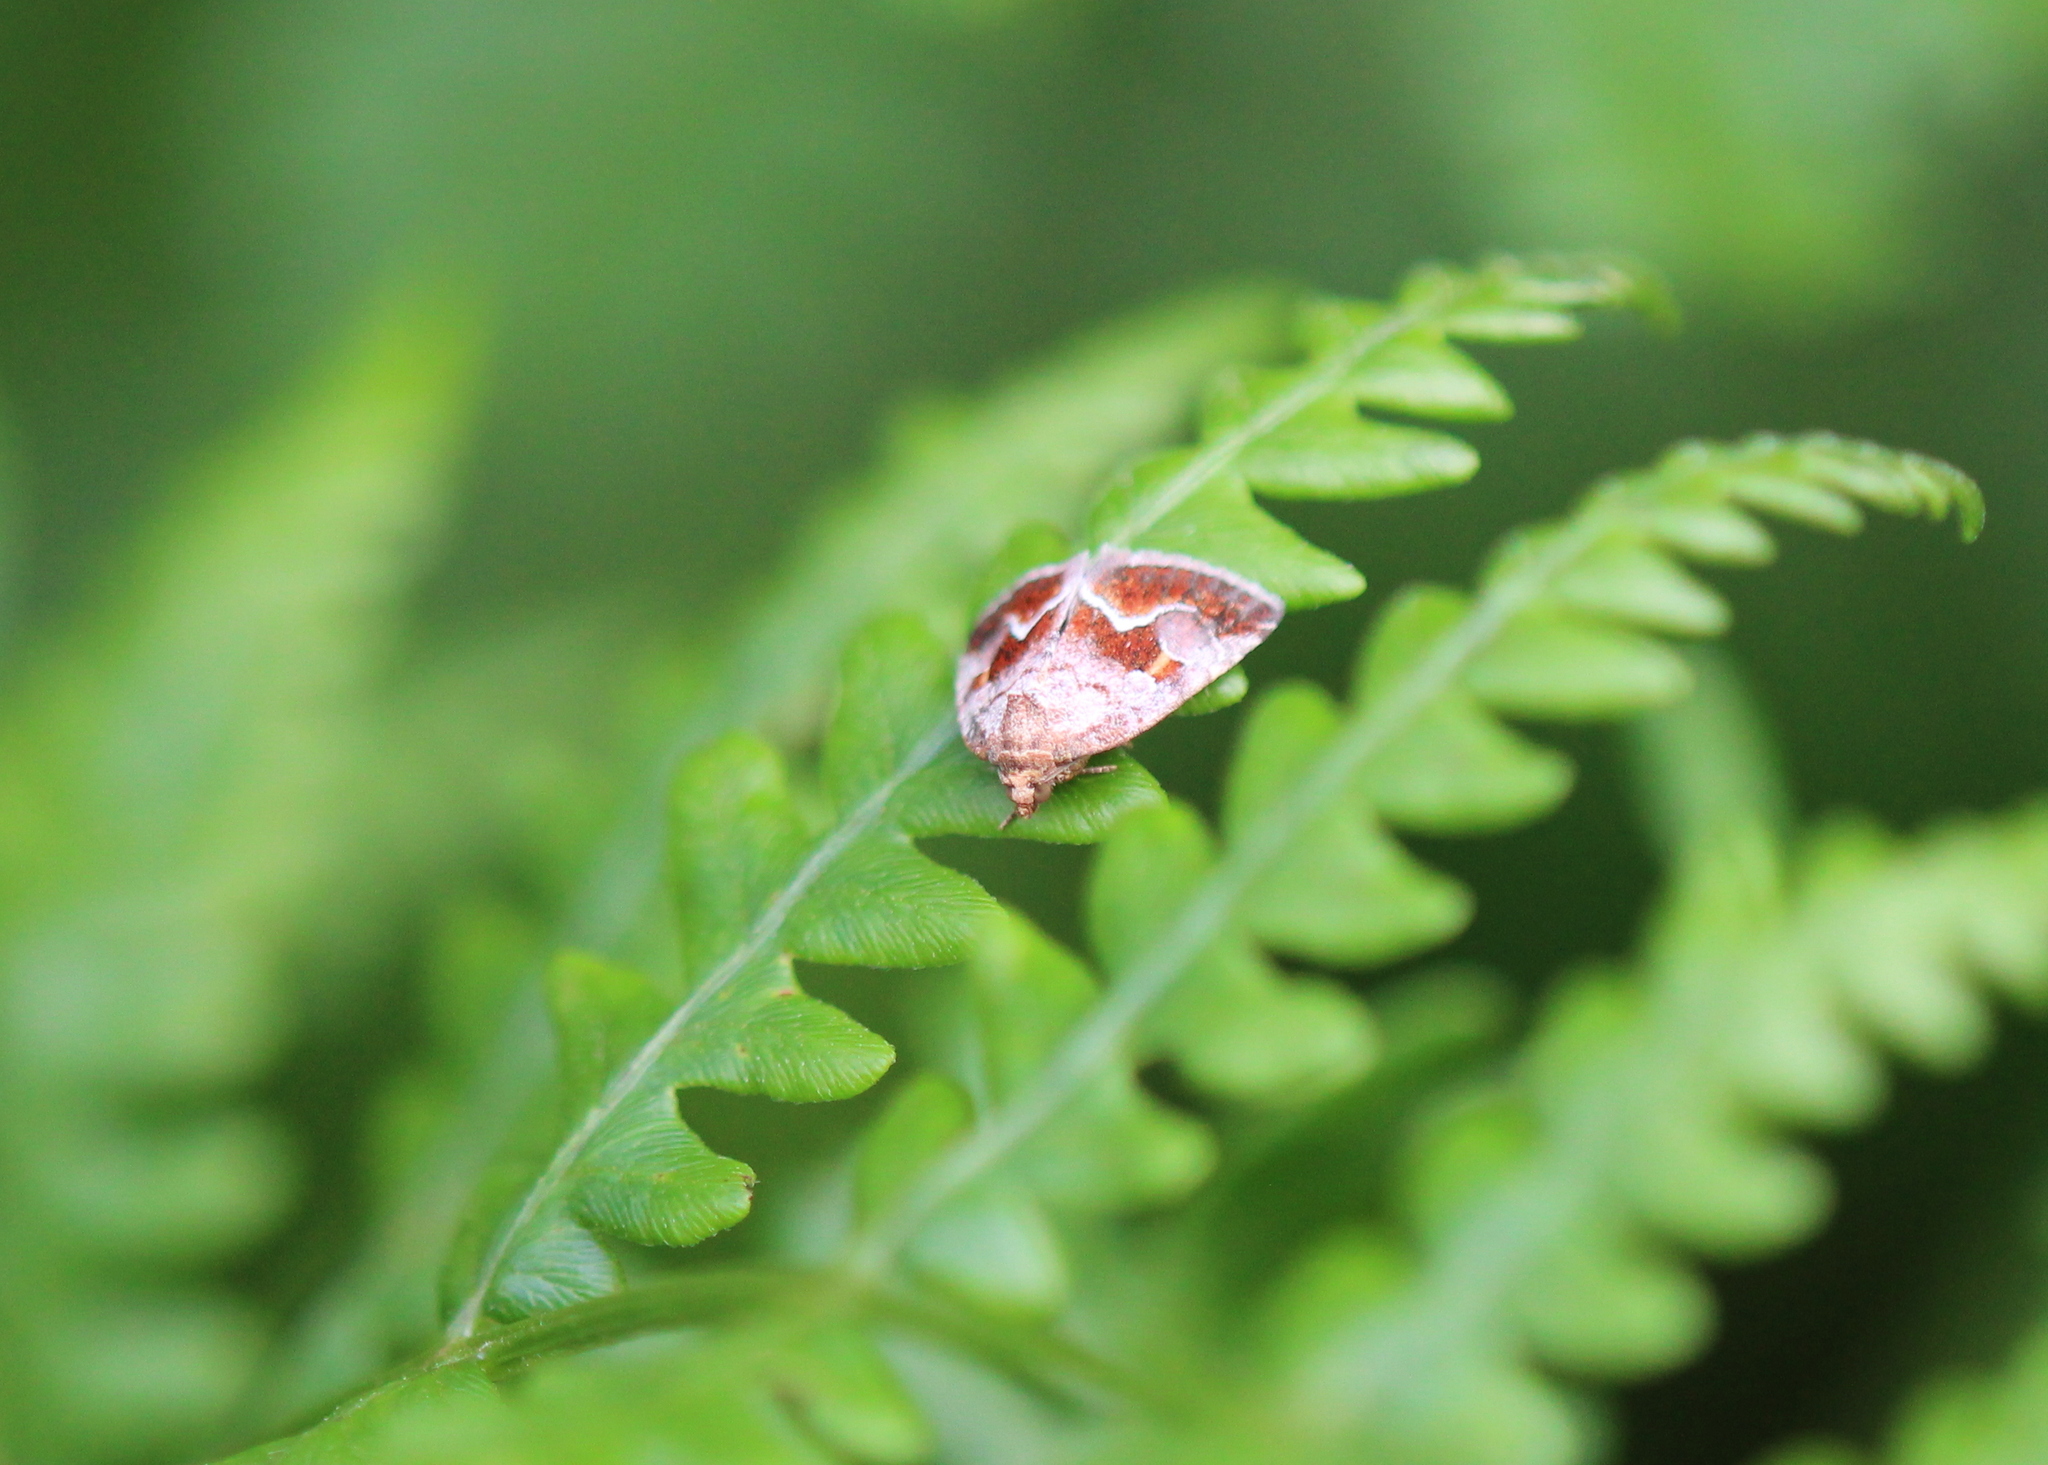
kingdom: Animalia
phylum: Arthropoda
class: Insecta
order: Lepidoptera
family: Noctuidae
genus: Deltote
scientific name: Deltote bellicula
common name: Bog glyph
